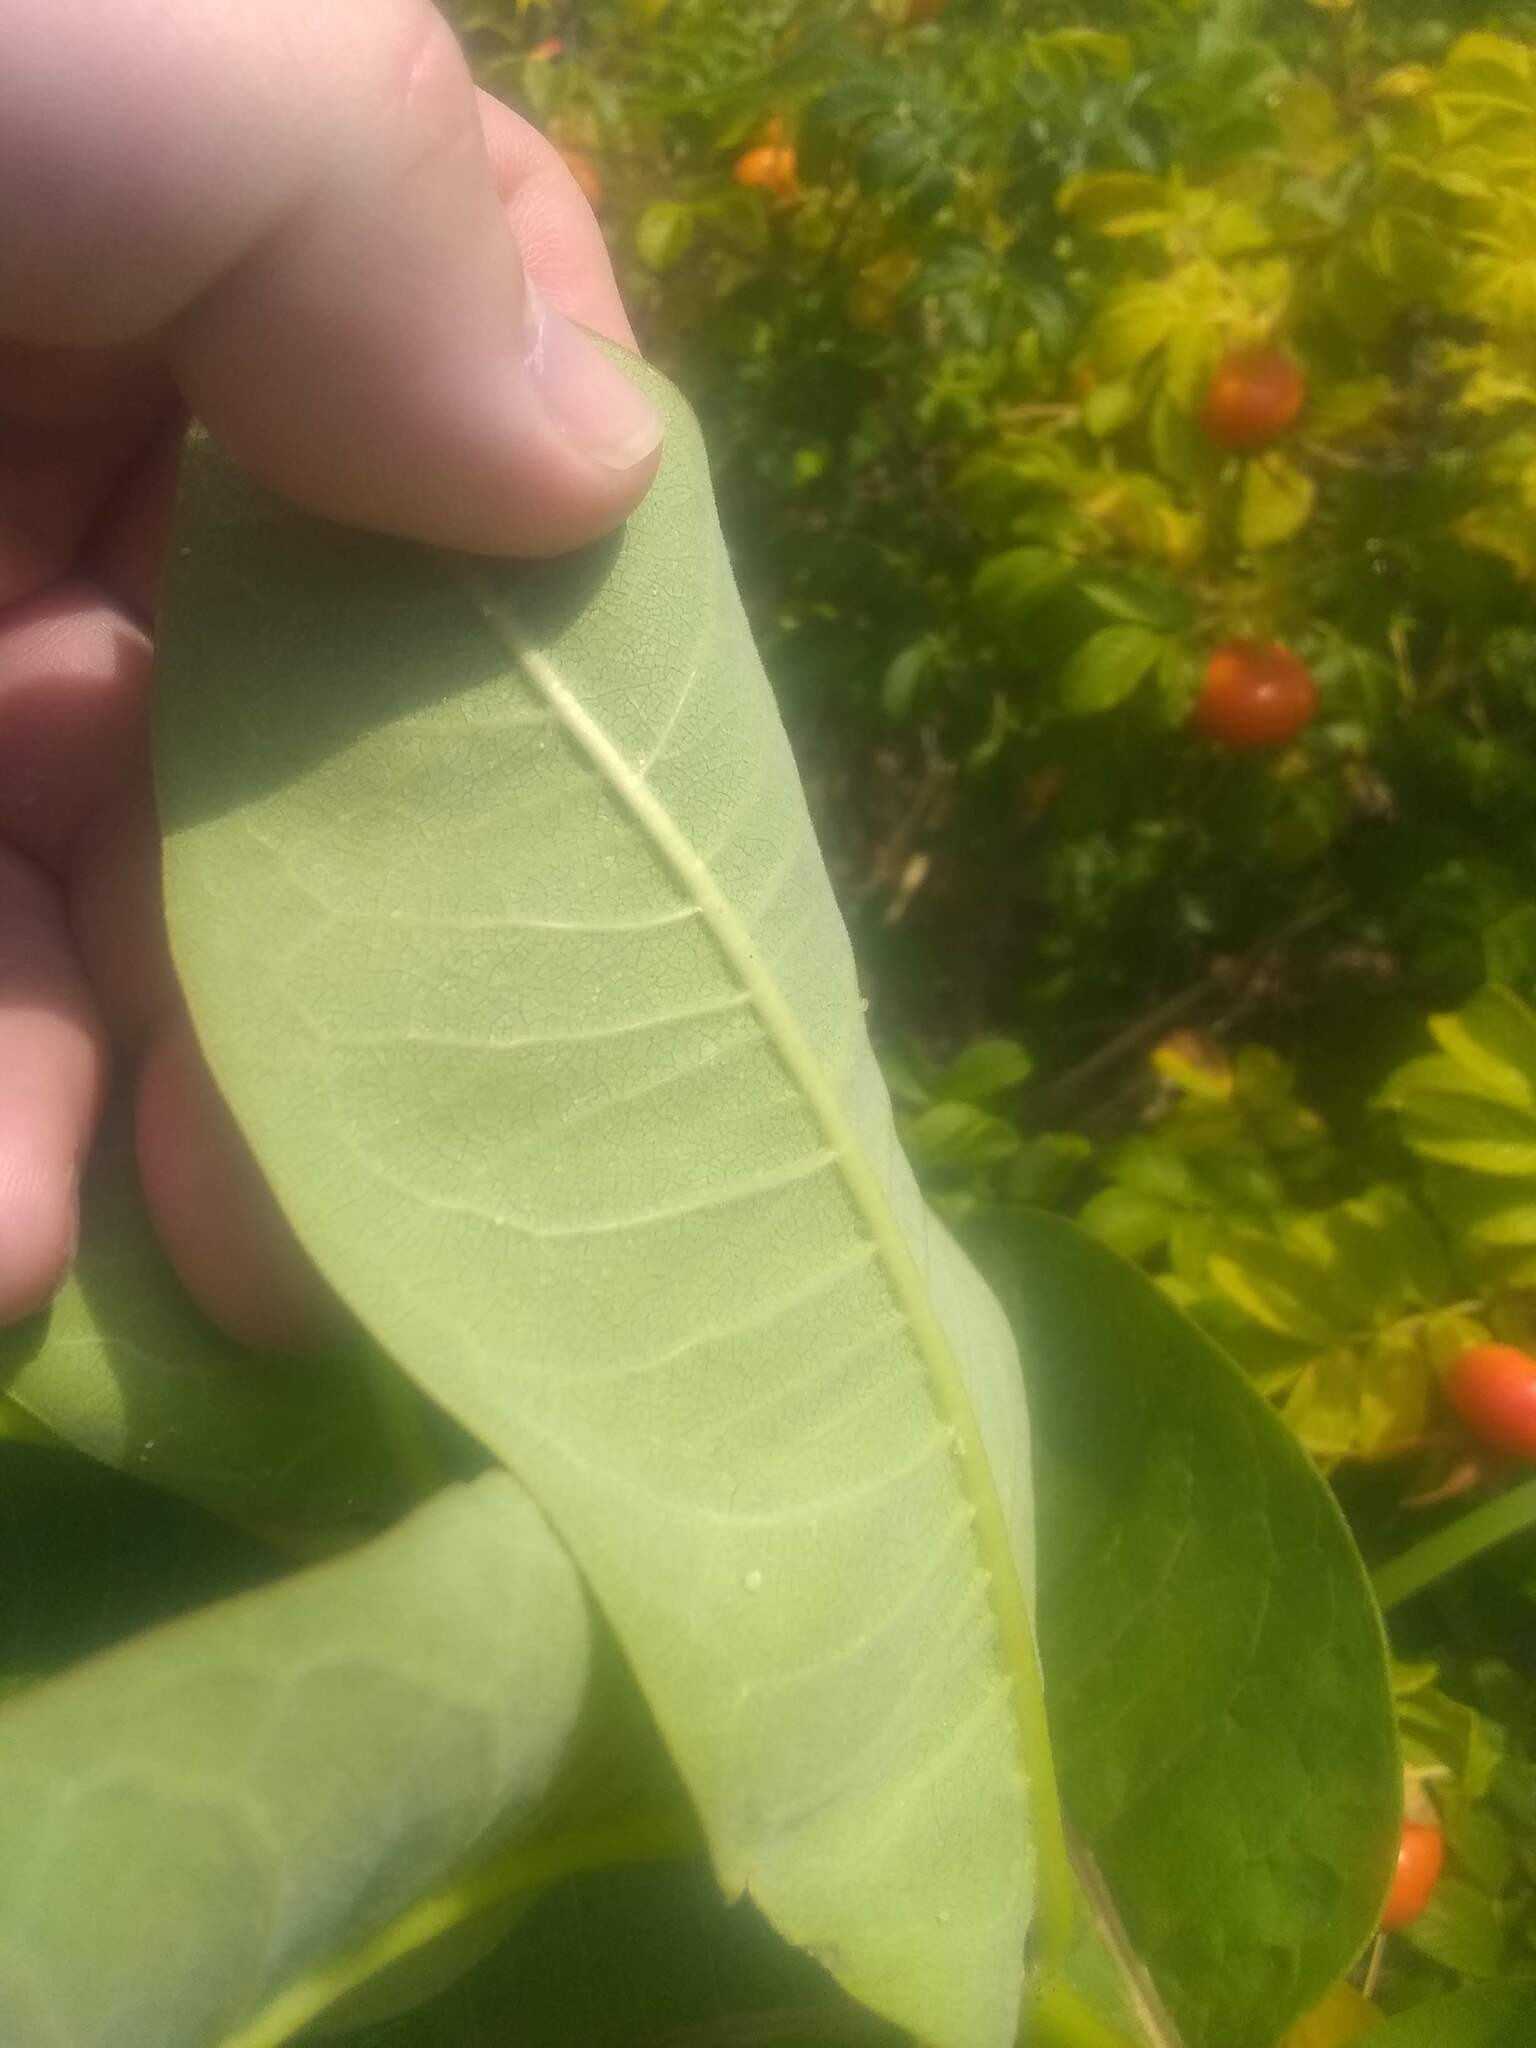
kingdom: Animalia
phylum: Arthropoda
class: Insecta
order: Lepidoptera
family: Nymphalidae
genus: Danaus
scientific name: Danaus plexippus
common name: Monarch
